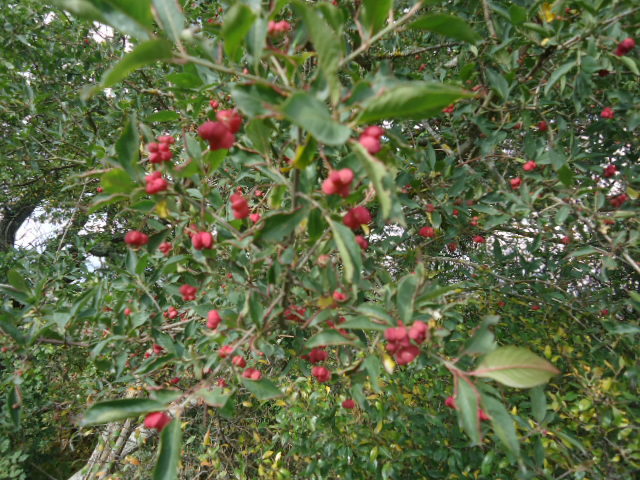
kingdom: Plantae
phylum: Tracheophyta
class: Magnoliopsida
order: Celastrales
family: Celastraceae
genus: Euonymus
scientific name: Euonymus europaeus
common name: Spindle
